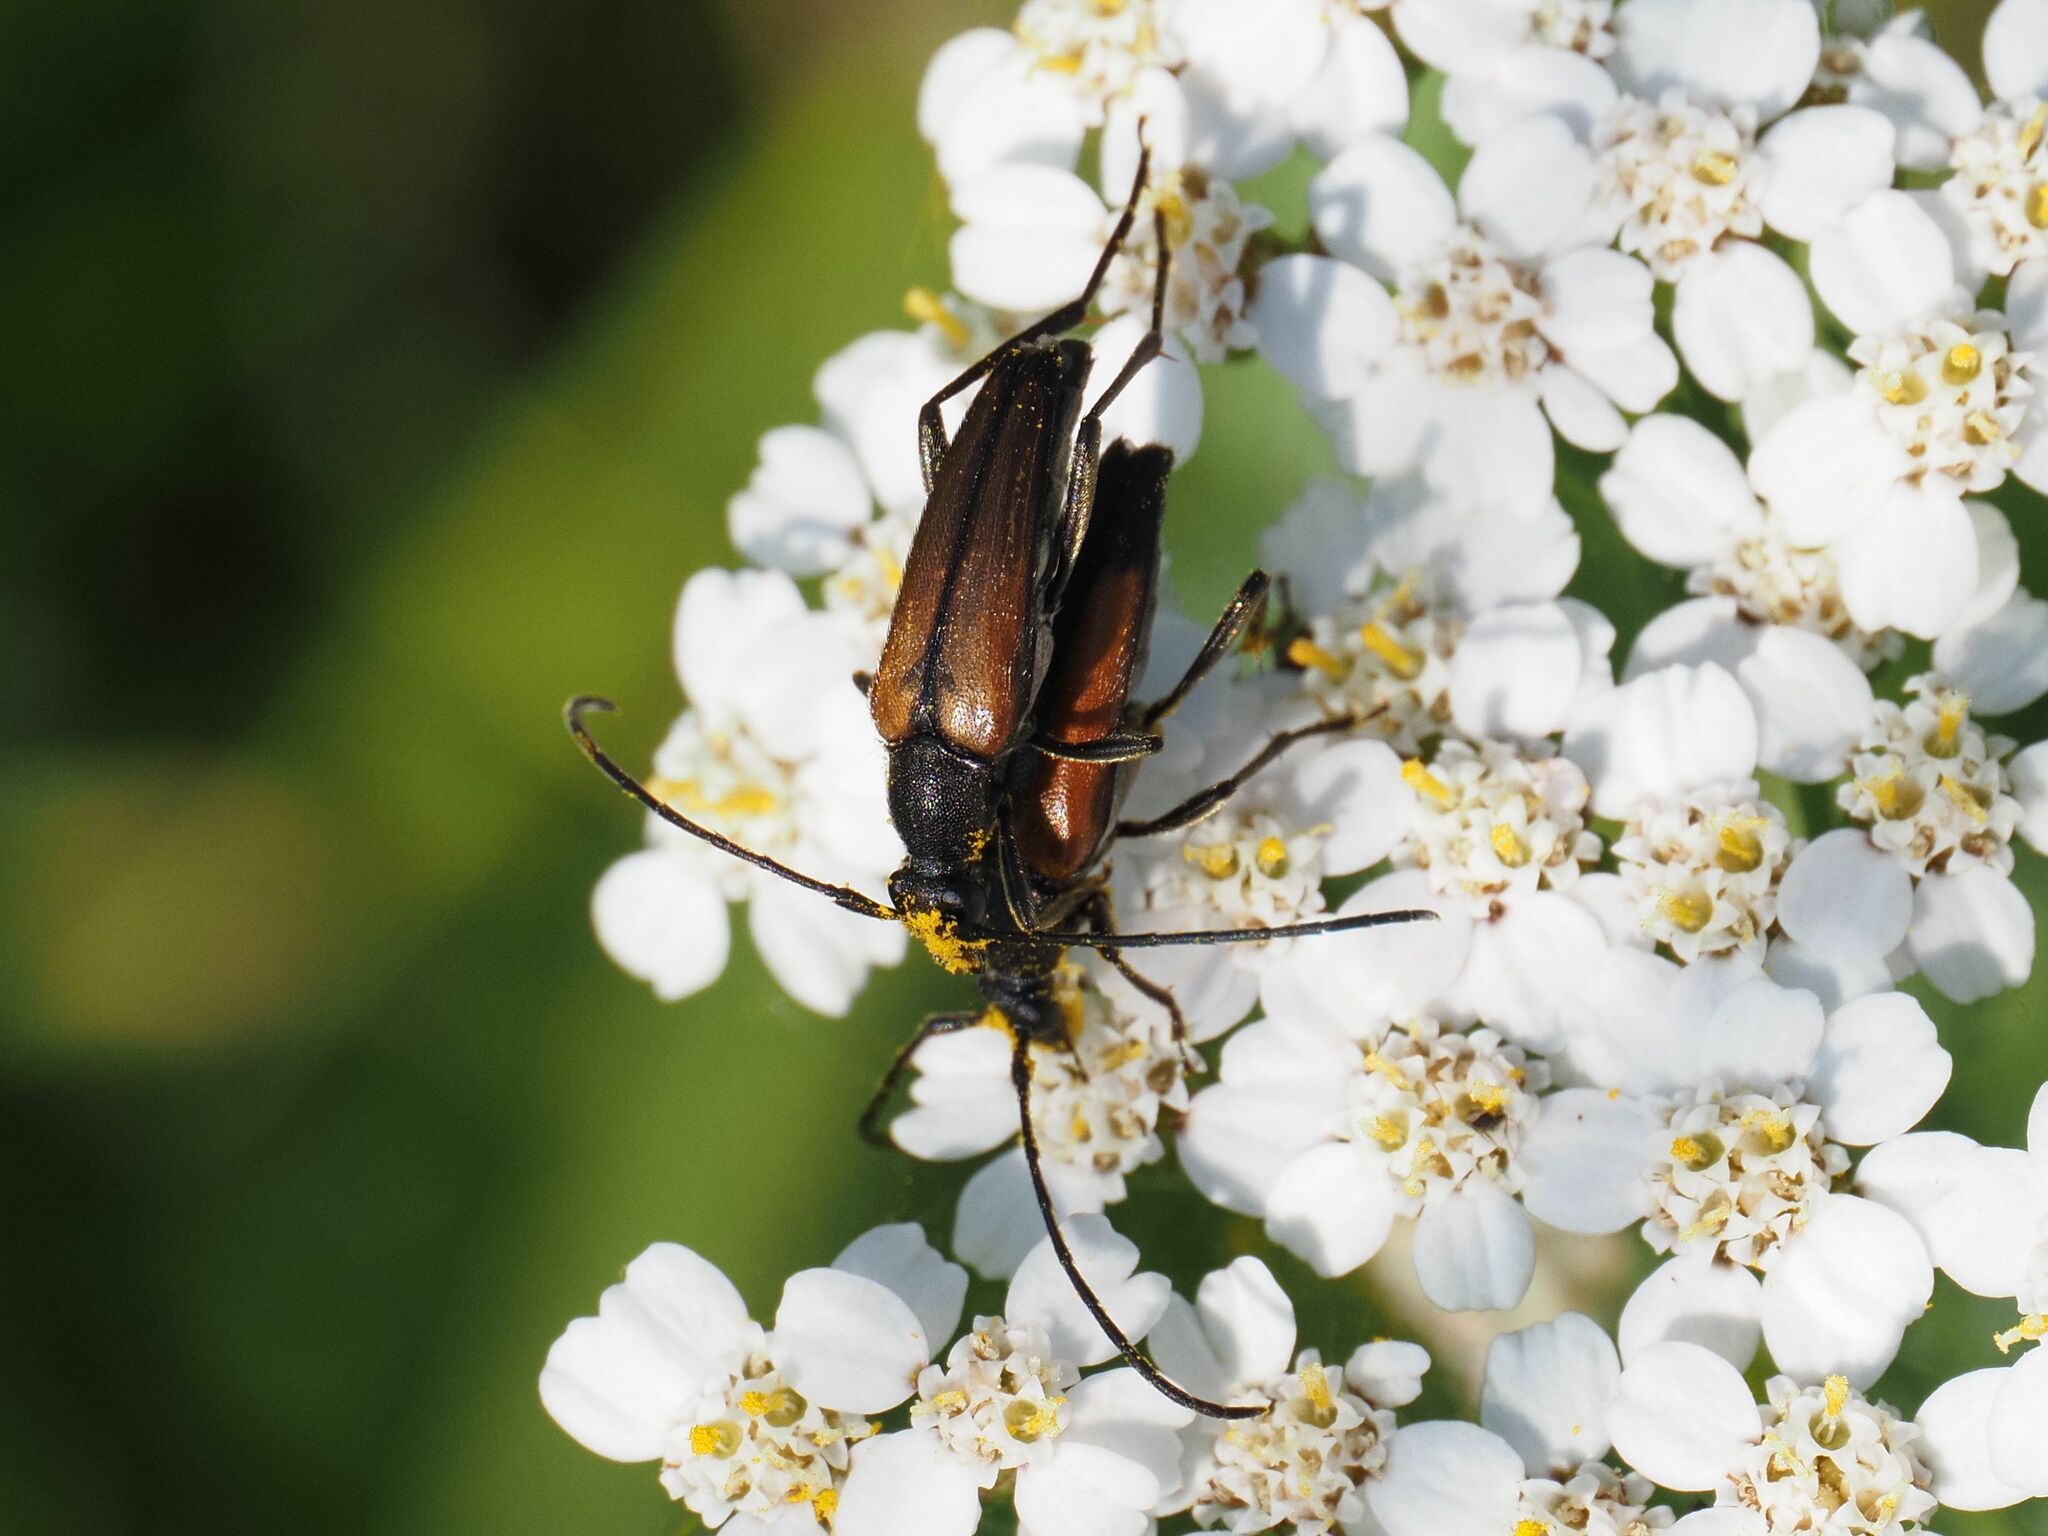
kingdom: Animalia
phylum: Arthropoda
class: Insecta
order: Coleoptera
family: Cerambycidae
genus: Stenurella
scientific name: Stenurella melanura
